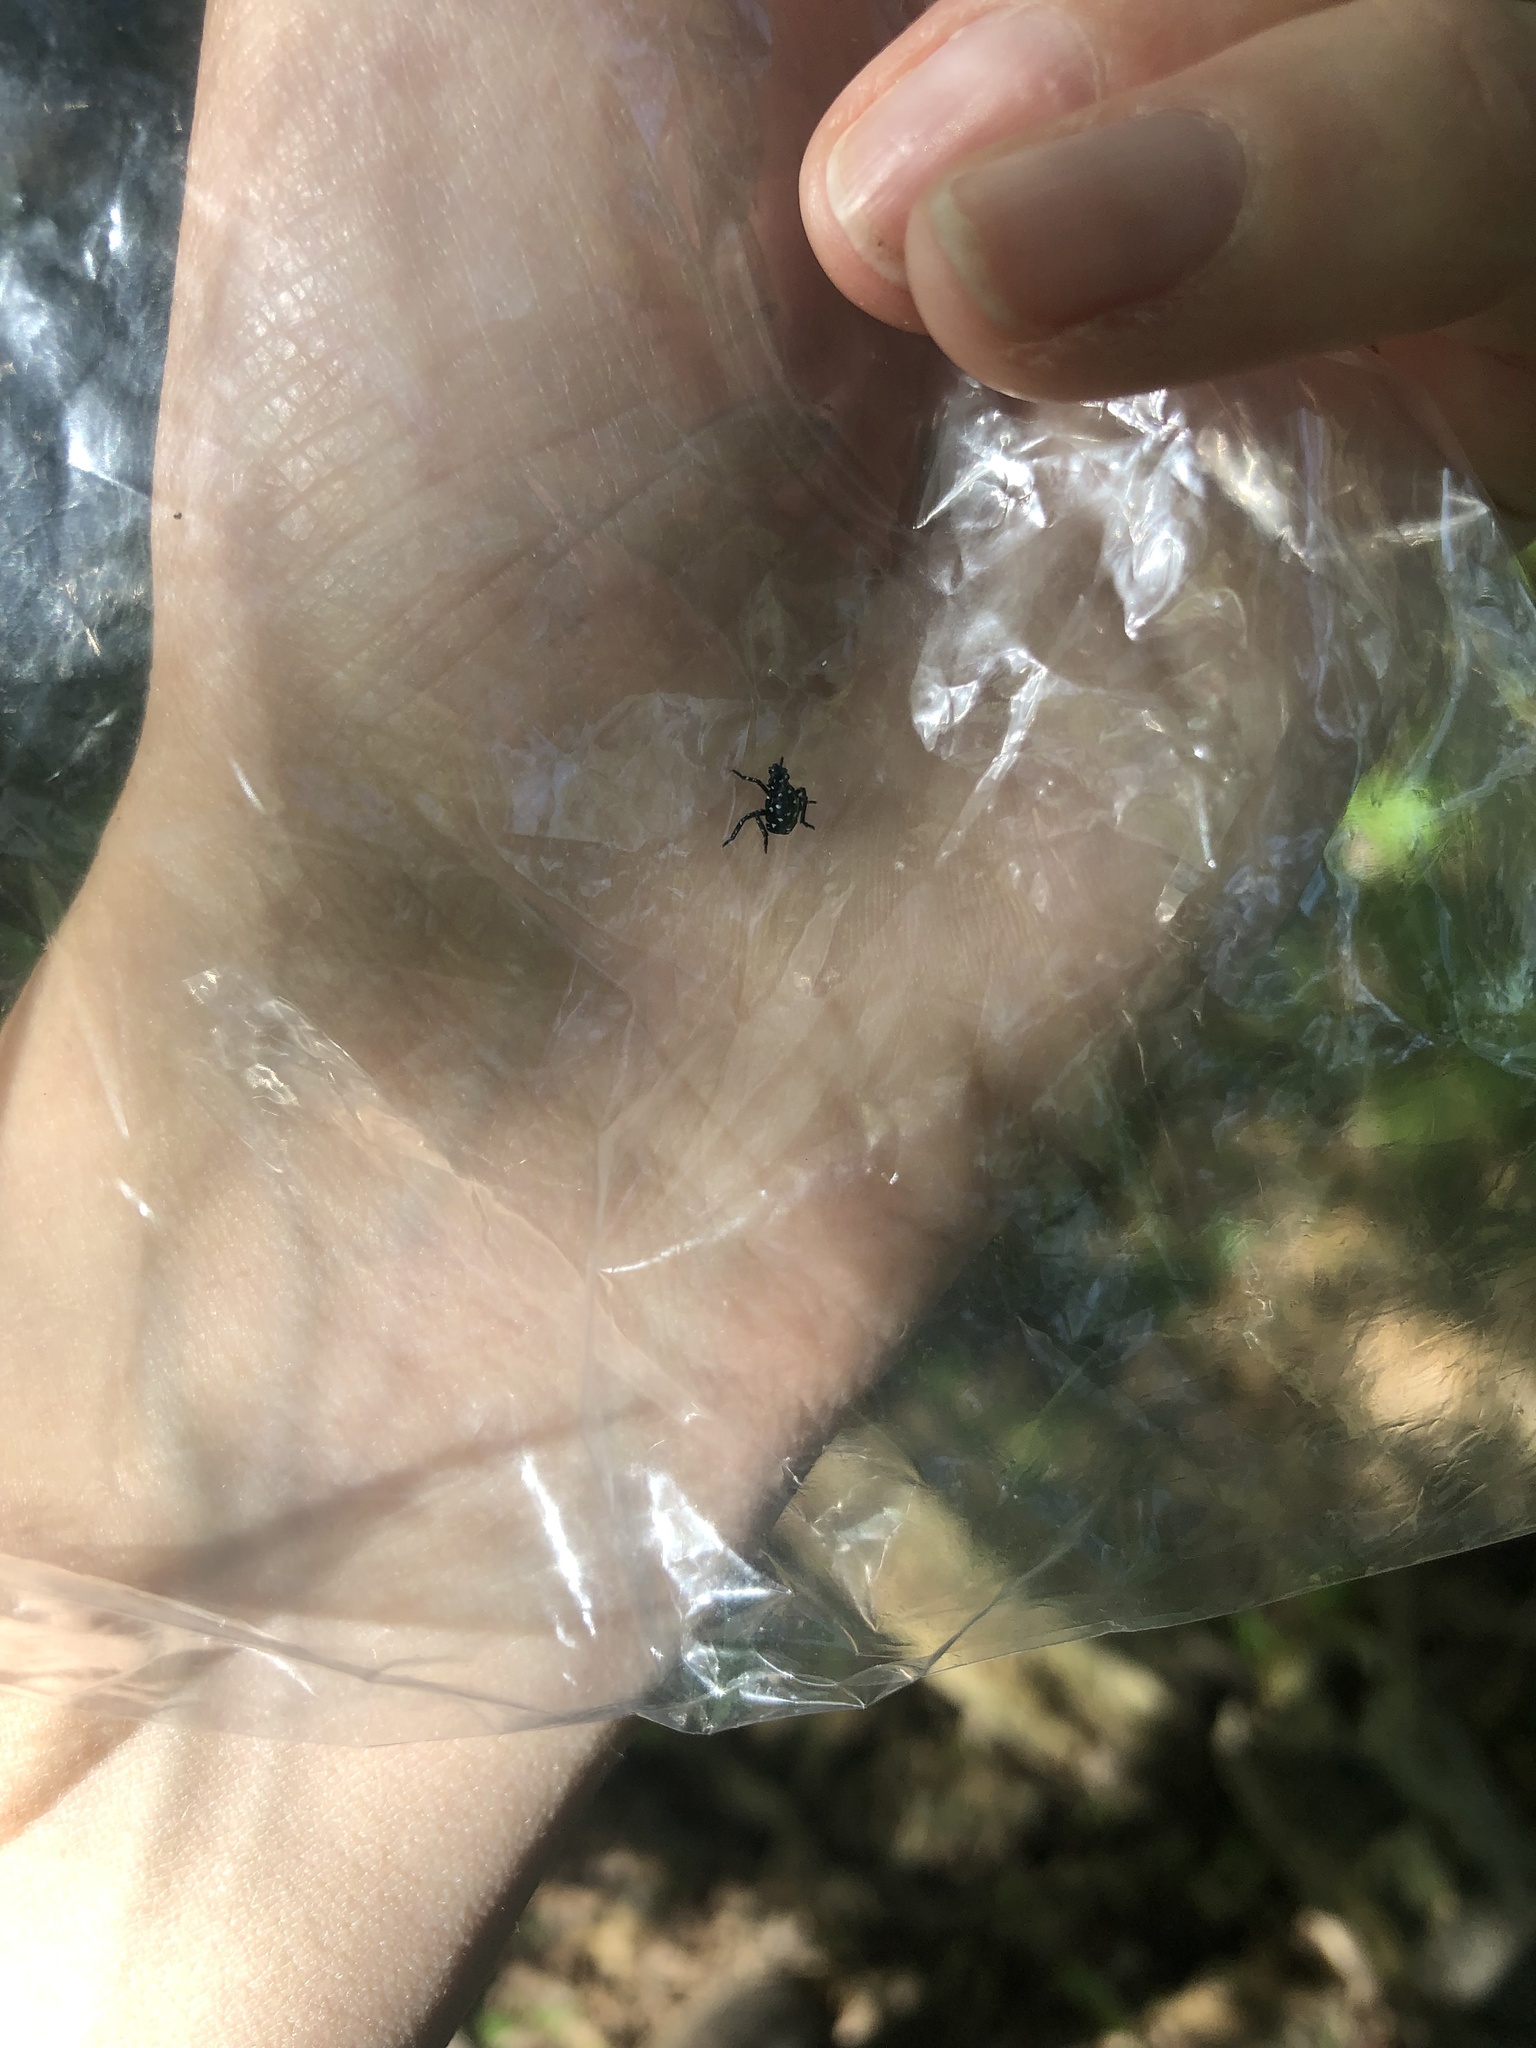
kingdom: Animalia
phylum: Arthropoda
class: Insecta
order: Hemiptera
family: Fulgoridae
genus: Lycorma
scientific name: Lycorma delicatula
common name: Spotted lanternfly
